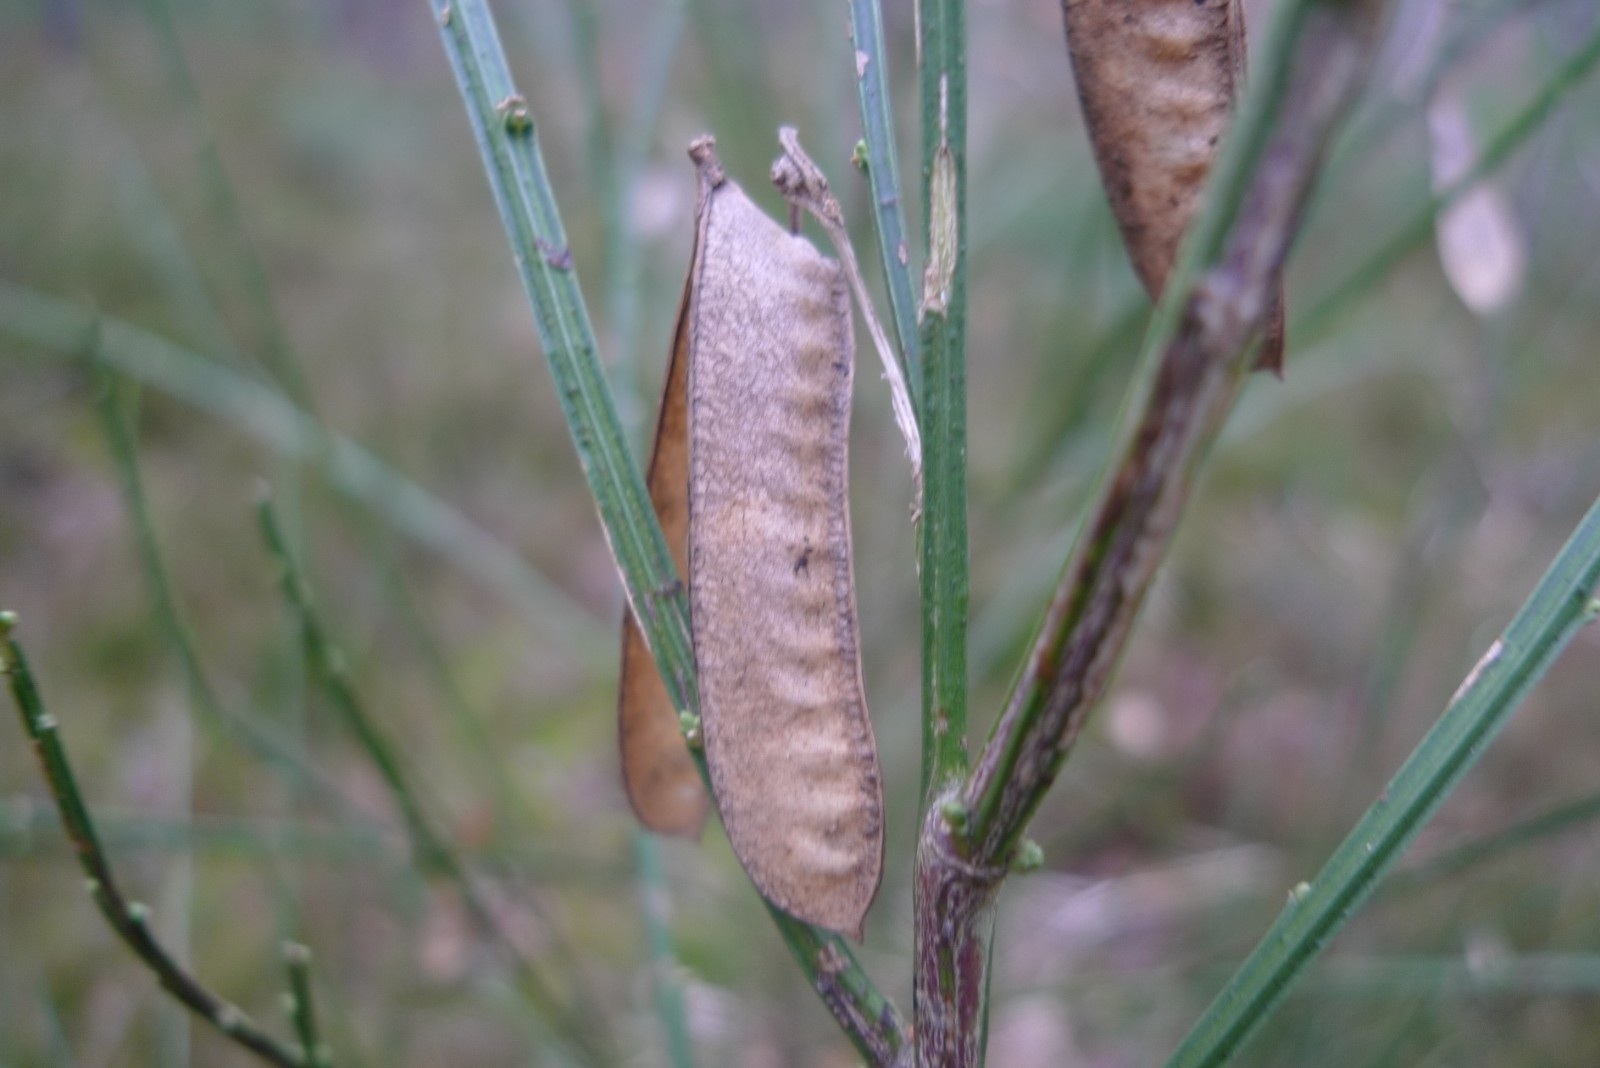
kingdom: Plantae
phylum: Tracheophyta
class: Magnoliopsida
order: Fabales
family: Fabaceae
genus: Cytisus
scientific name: Cytisus scoparius
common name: Scotch broom
